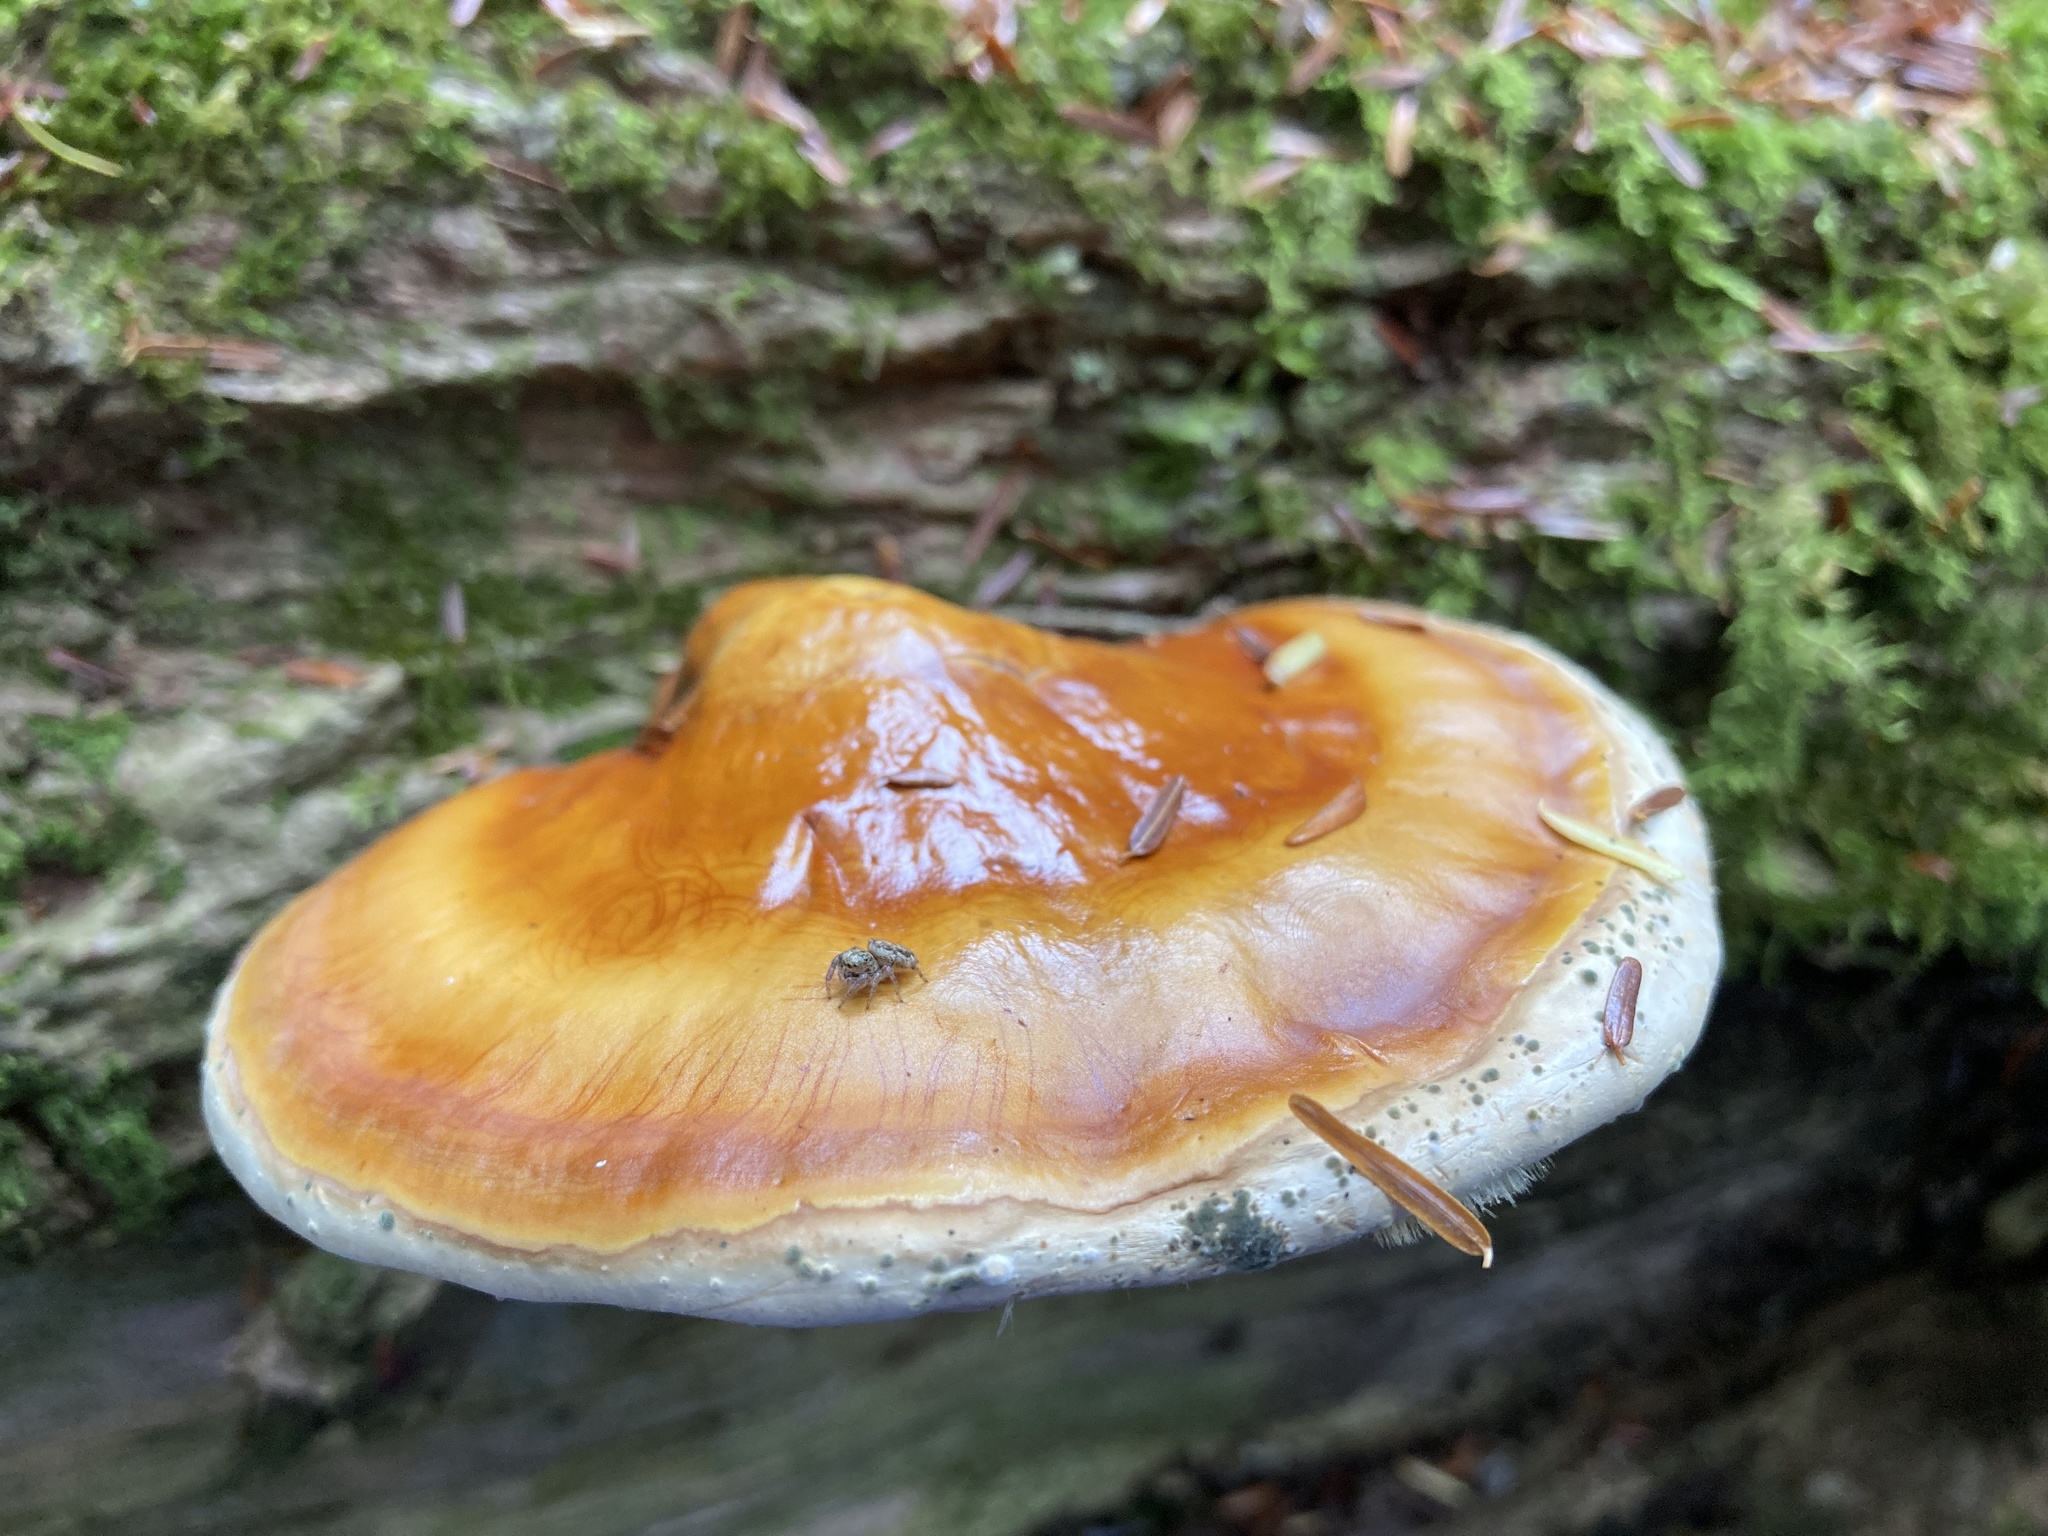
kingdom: Fungi
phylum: Basidiomycota
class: Agaricomycetes
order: Polyporales
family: Polyporaceae
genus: Ganoderma
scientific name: Ganoderma tsugae
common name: Hemlock varnish shelf
